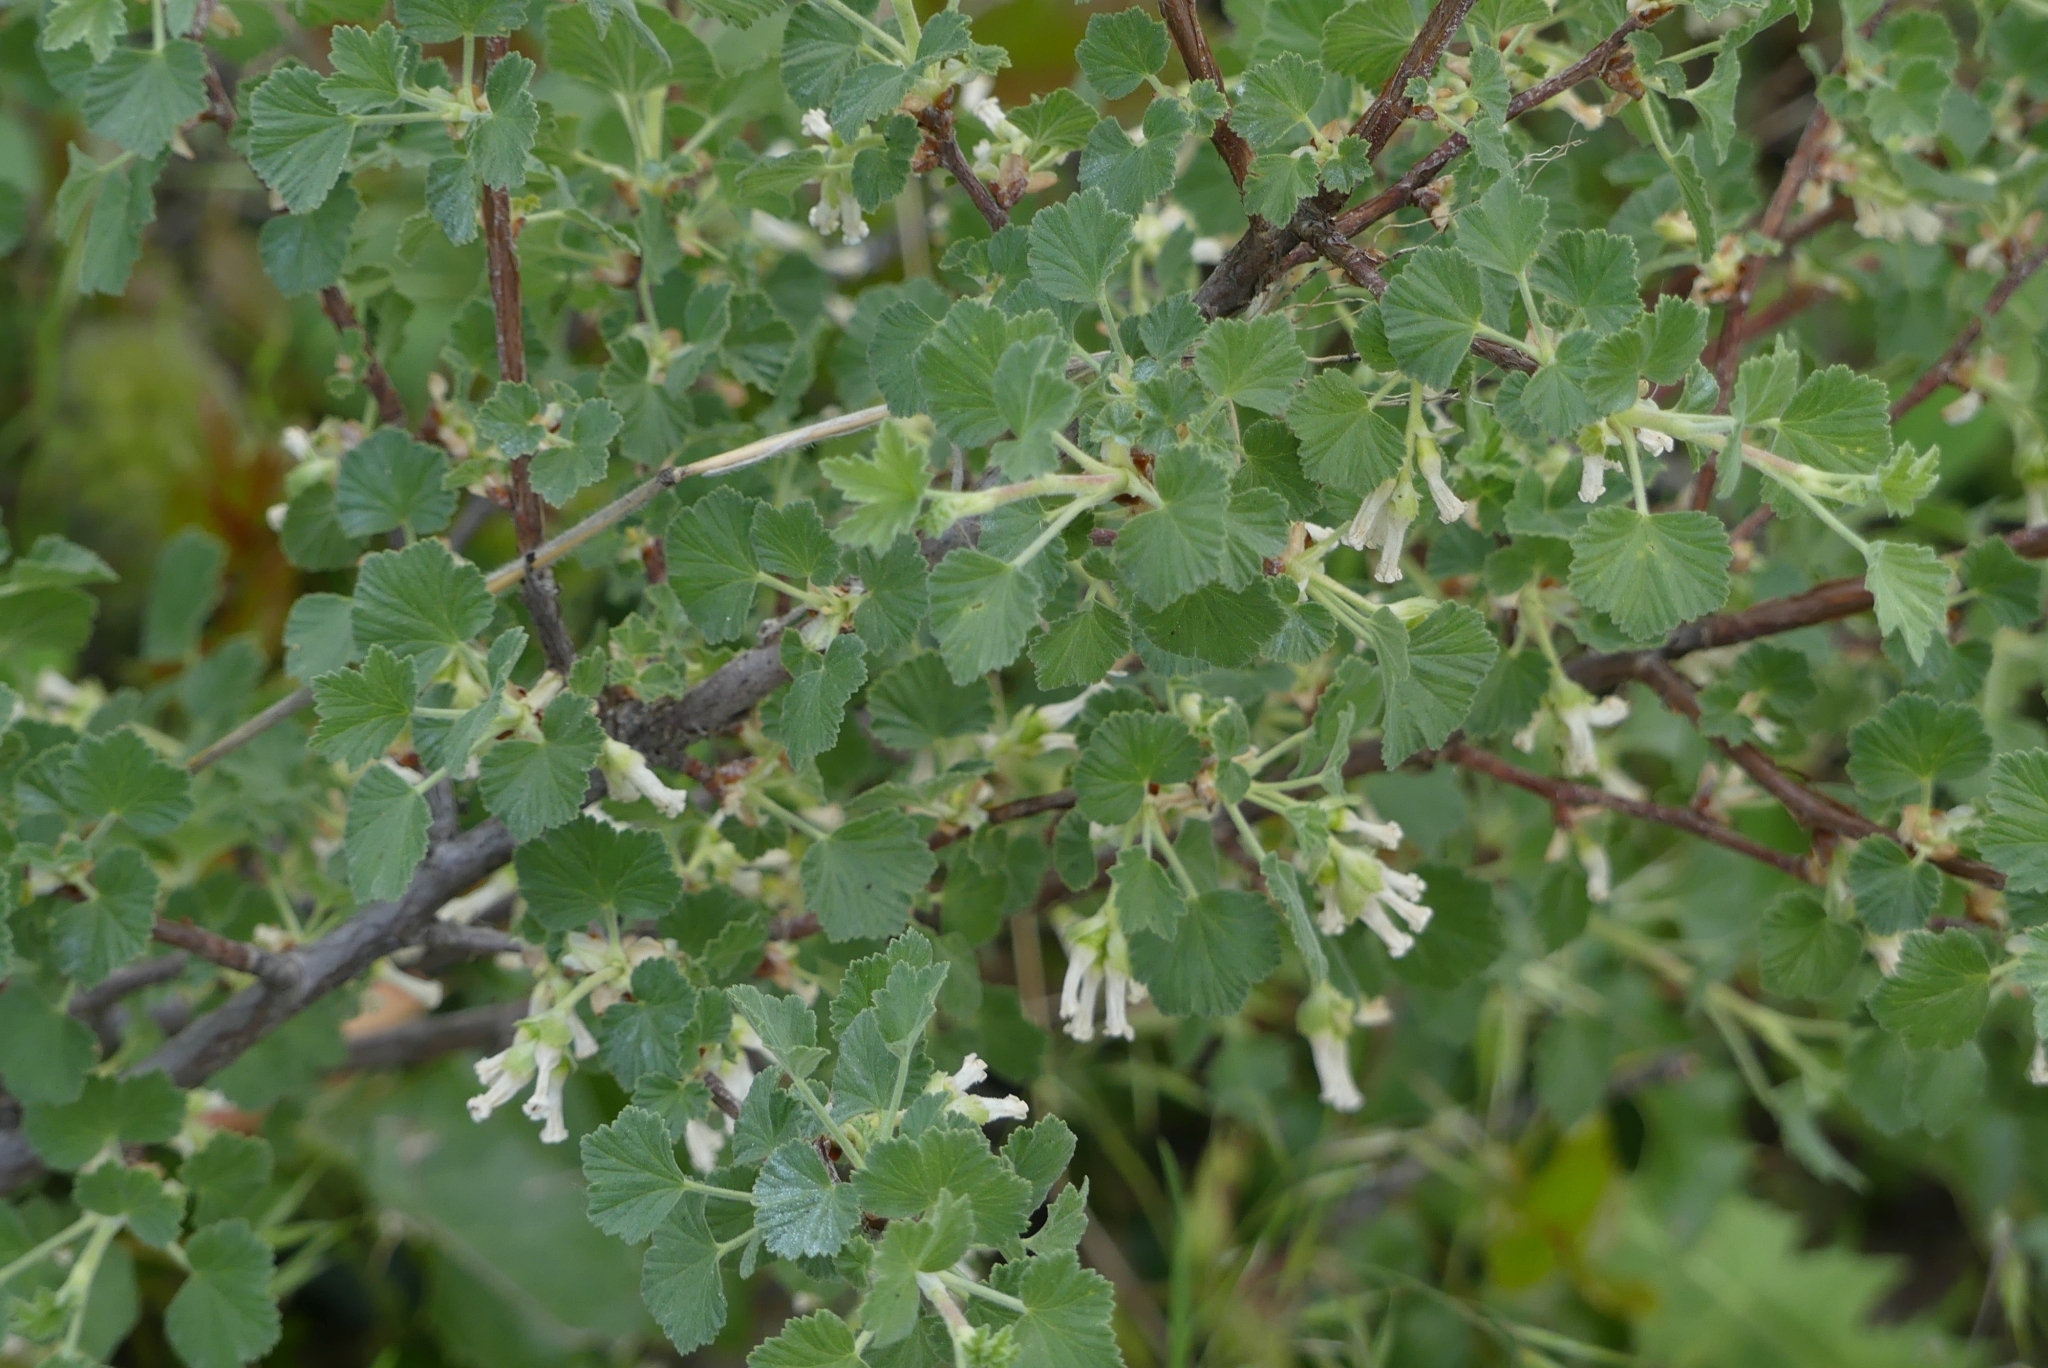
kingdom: Plantae
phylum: Tracheophyta
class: Magnoliopsida
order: Saxifragales
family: Grossulariaceae
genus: Ribes
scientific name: Ribes cereum
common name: Wax currant
